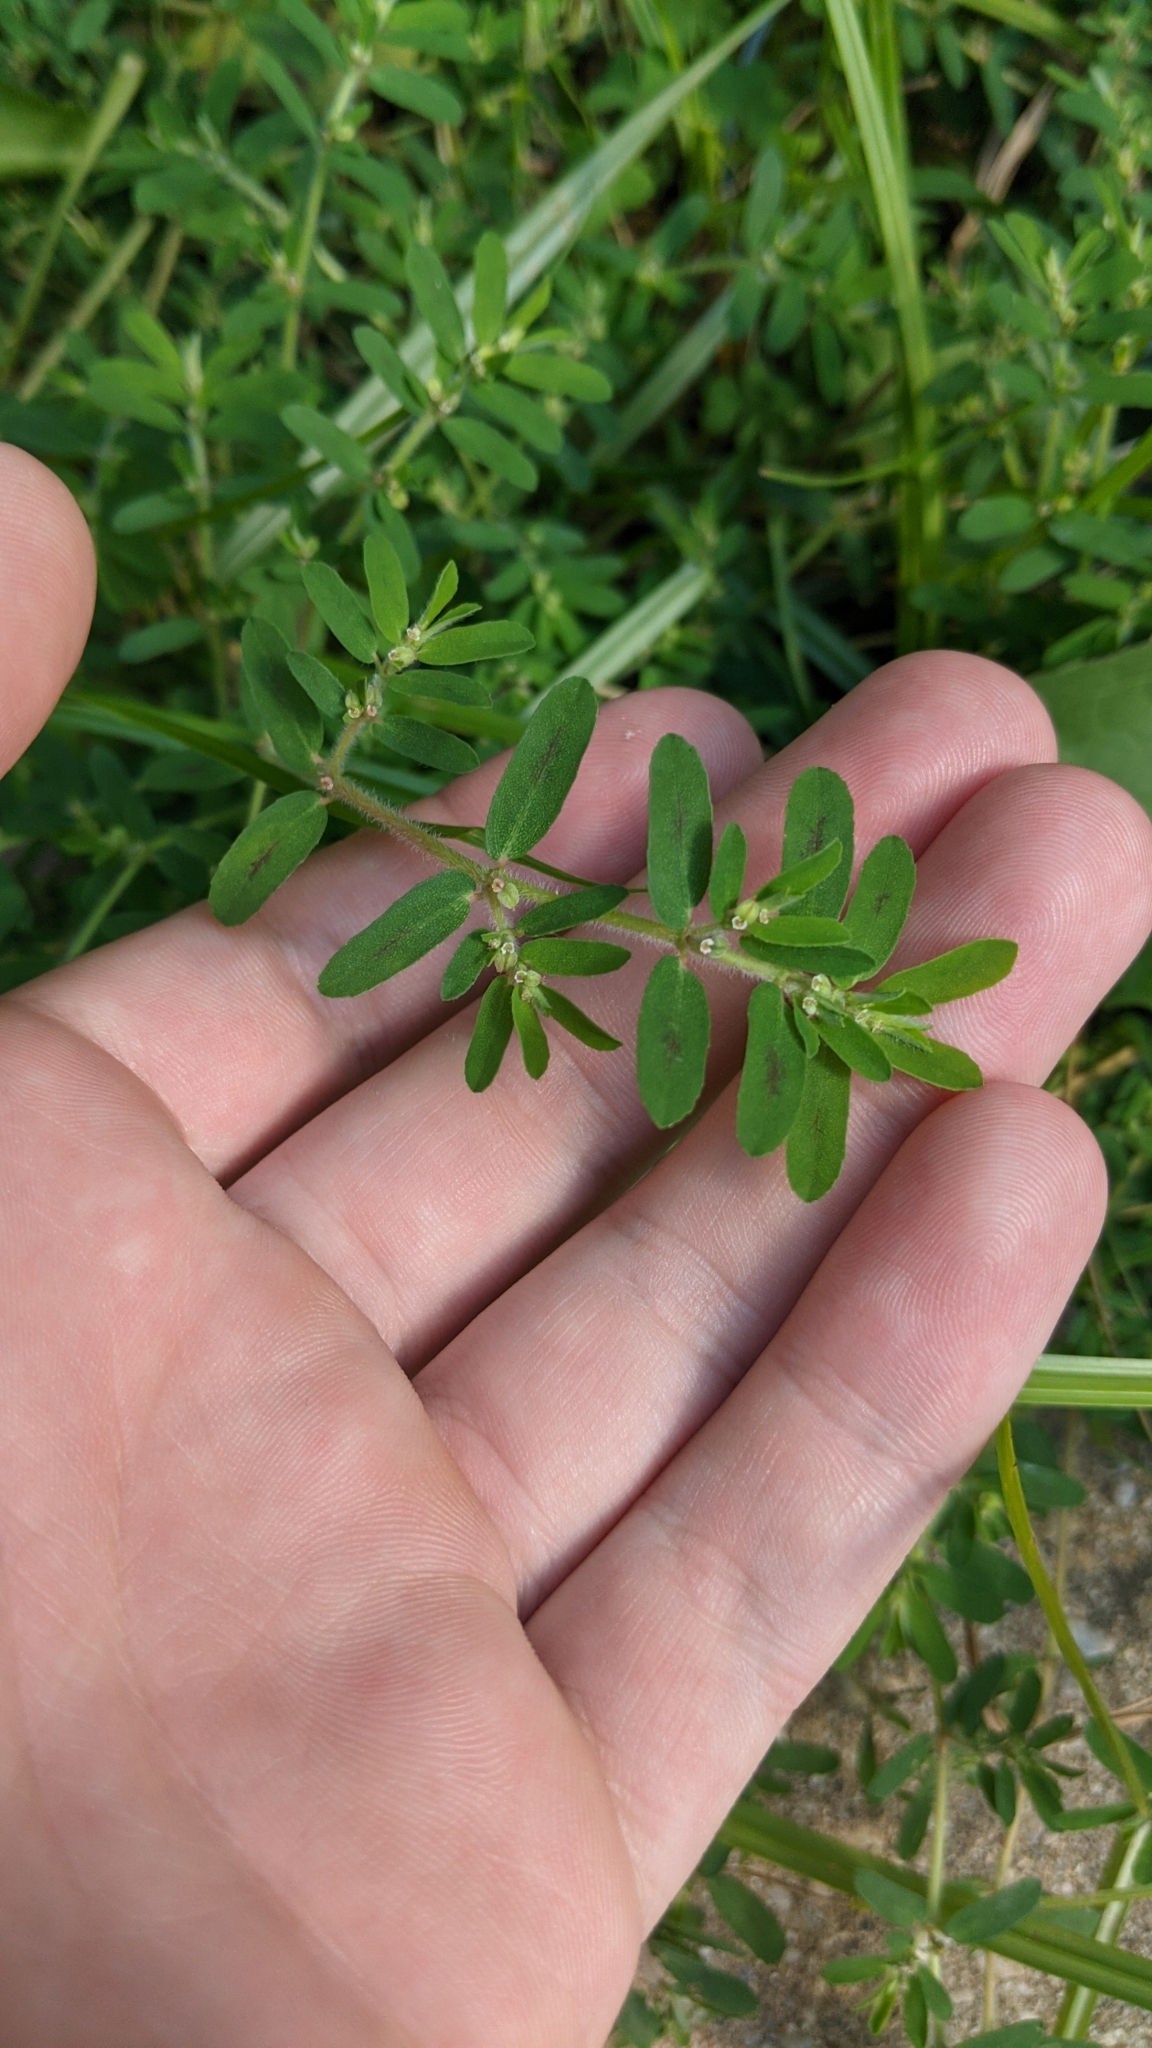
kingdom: Plantae
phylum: Tracheophyta
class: Magnoliopsida
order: Malpighiales
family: Euphorbiaceae
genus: Euphorbia
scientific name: Euphorbia maculata
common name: Spotted spurge
